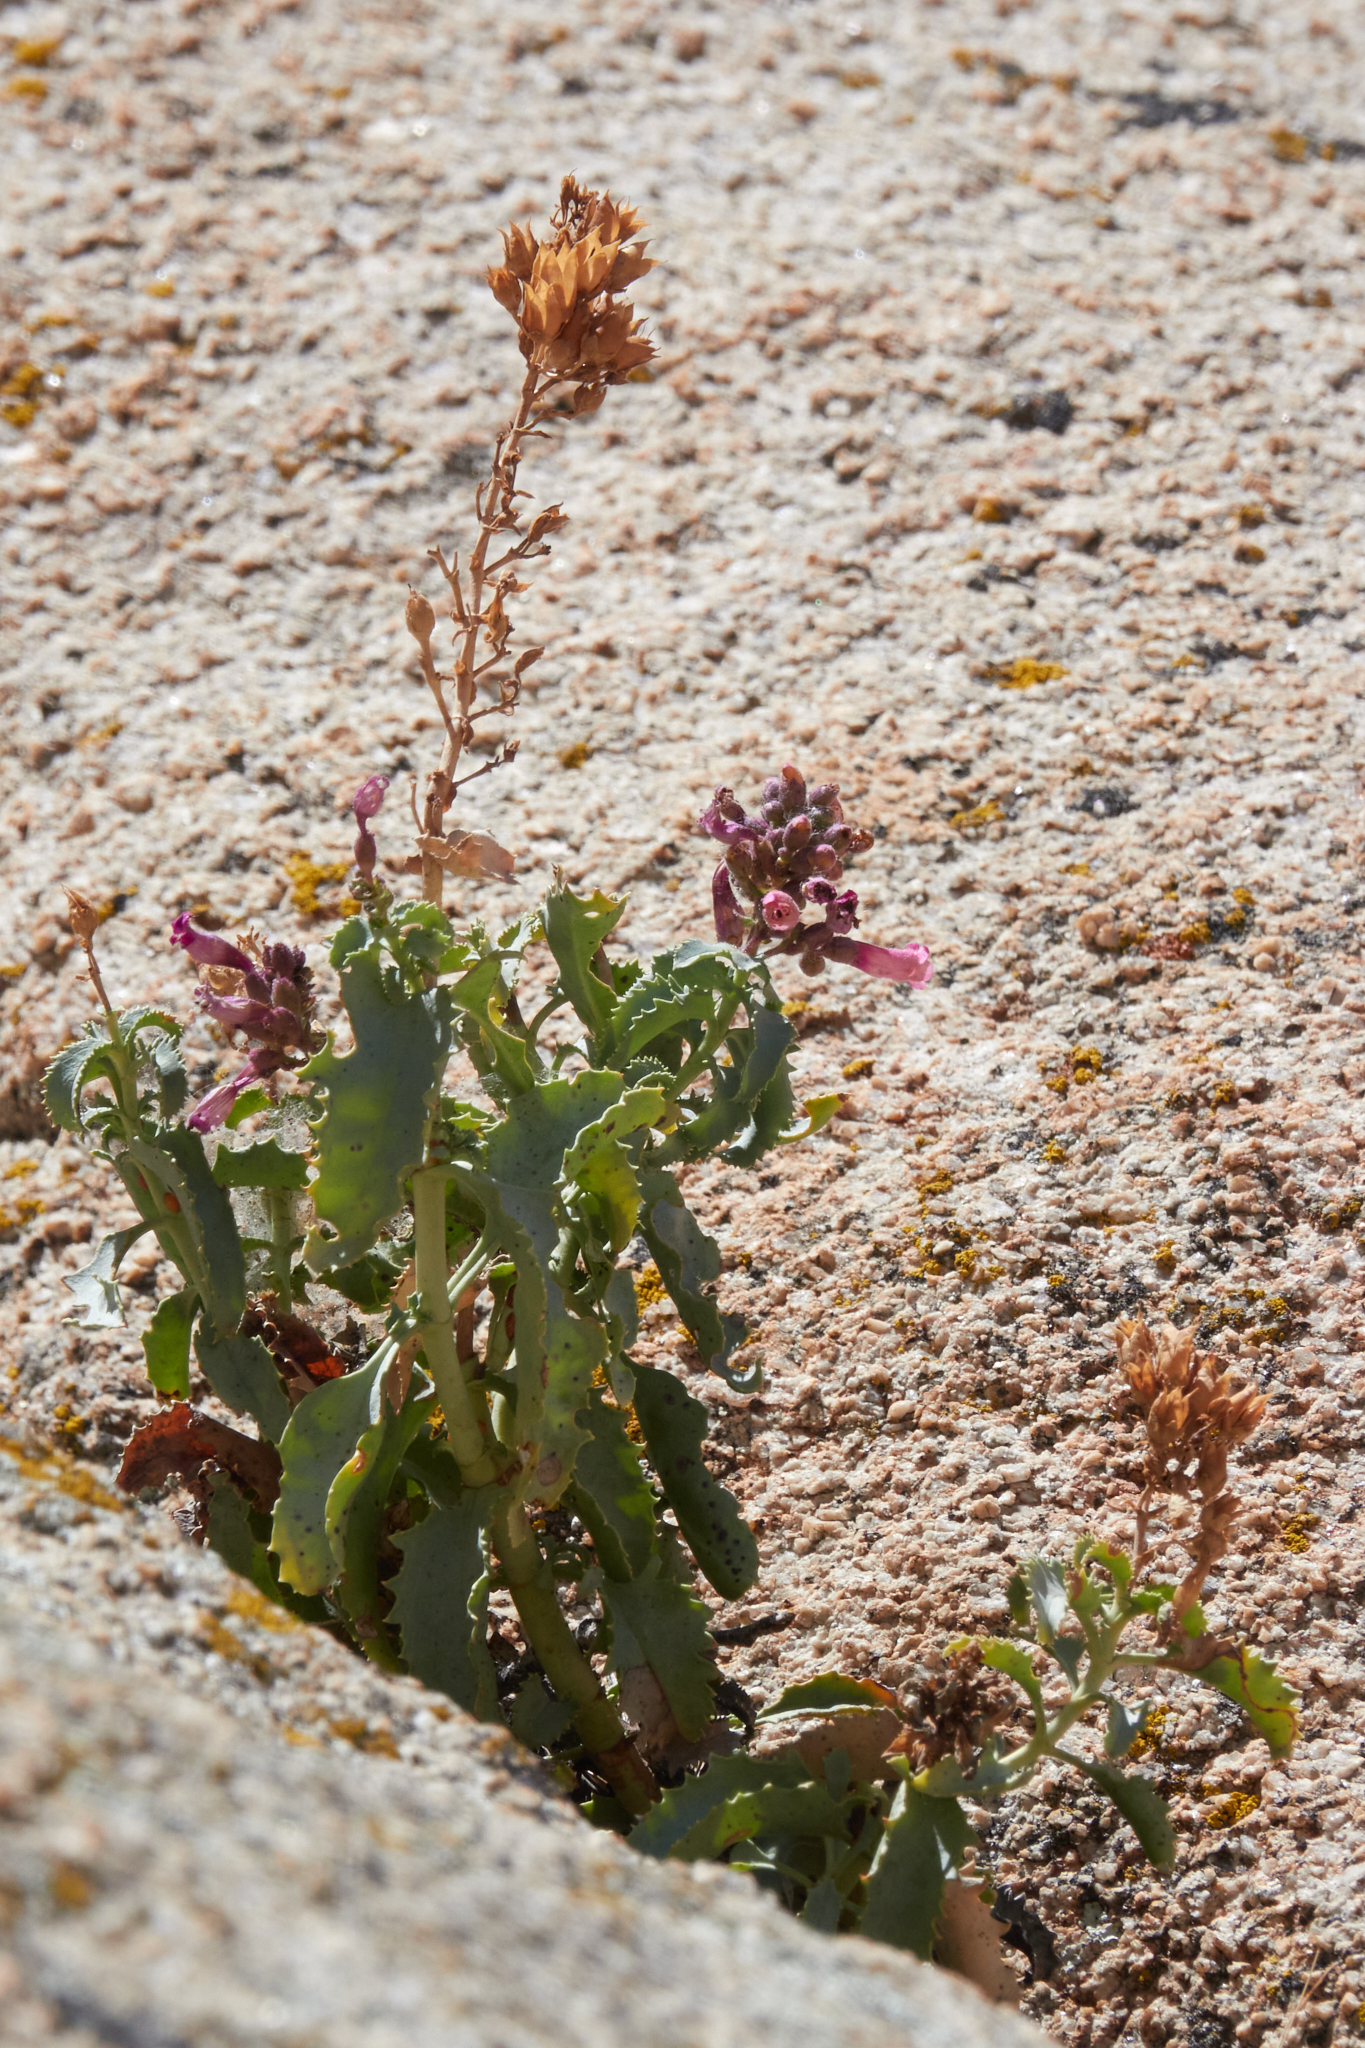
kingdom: Plantae
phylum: Tracheophyta
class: Magnoliopsida
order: Lamiales
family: Plantaginaceae
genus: Penstemon
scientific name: Penstemon clevelandii
